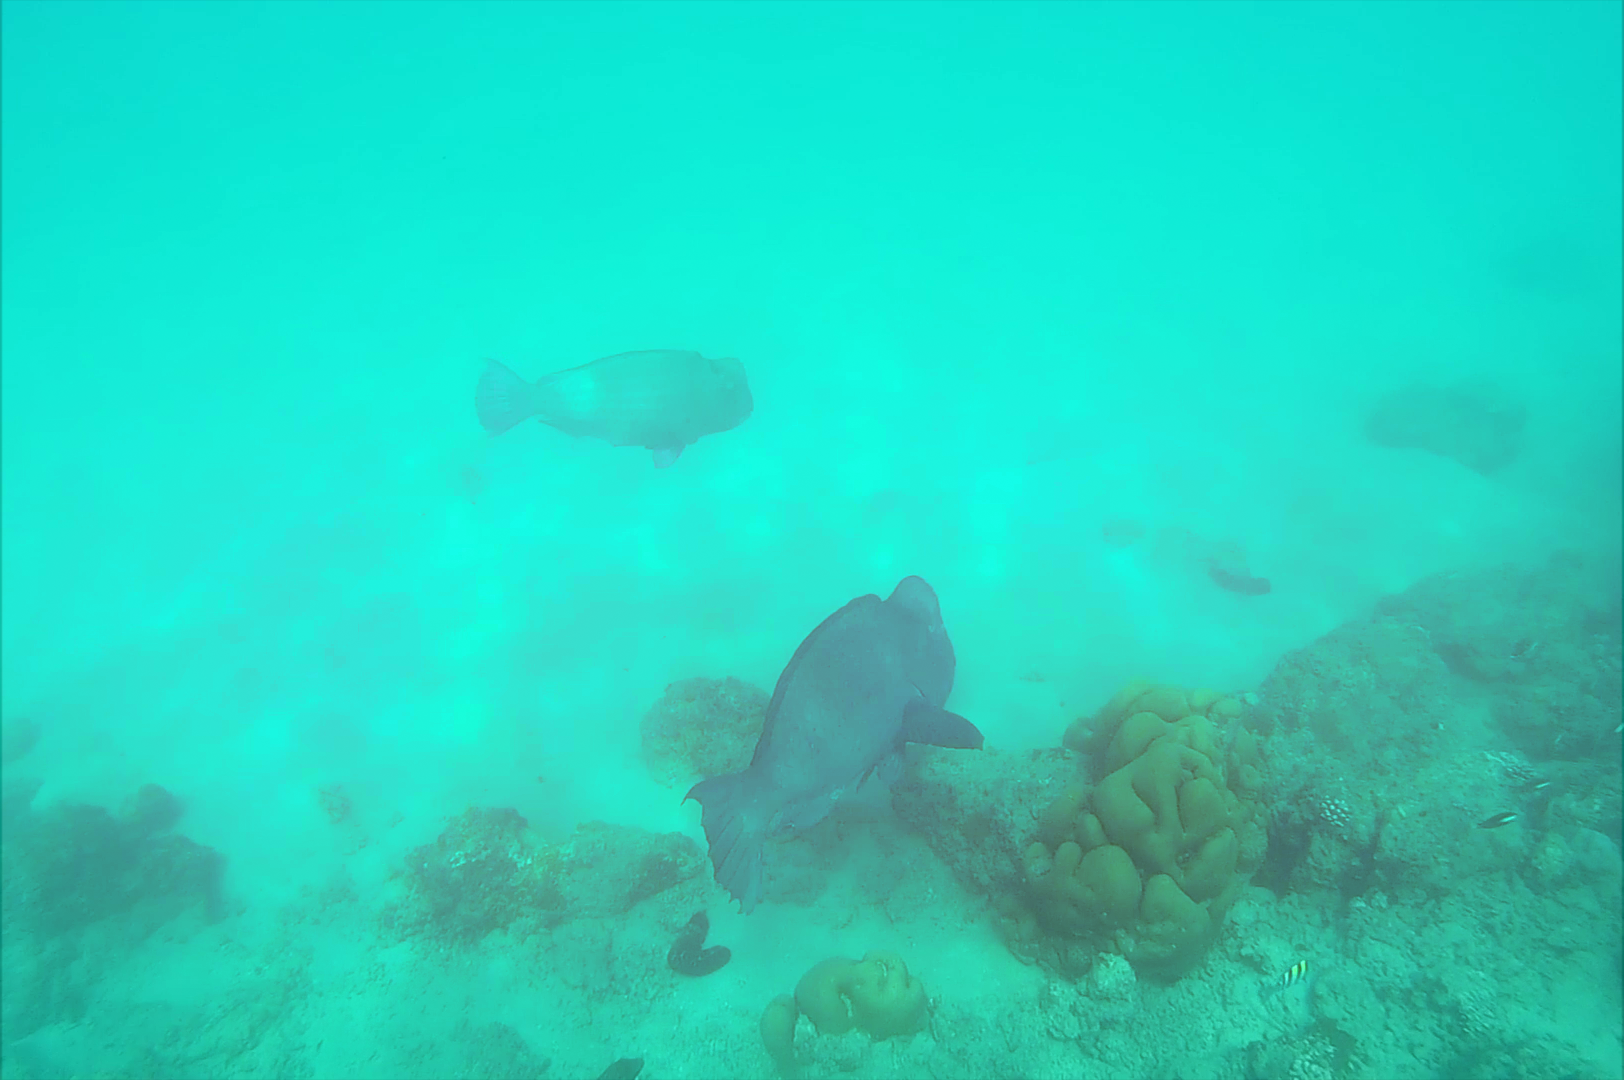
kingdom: Animalia
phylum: Chordata
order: Perciformes
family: Scaridae
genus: Bolbometopon
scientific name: Bolbometopon muricatum
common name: Humphead parrotfish
